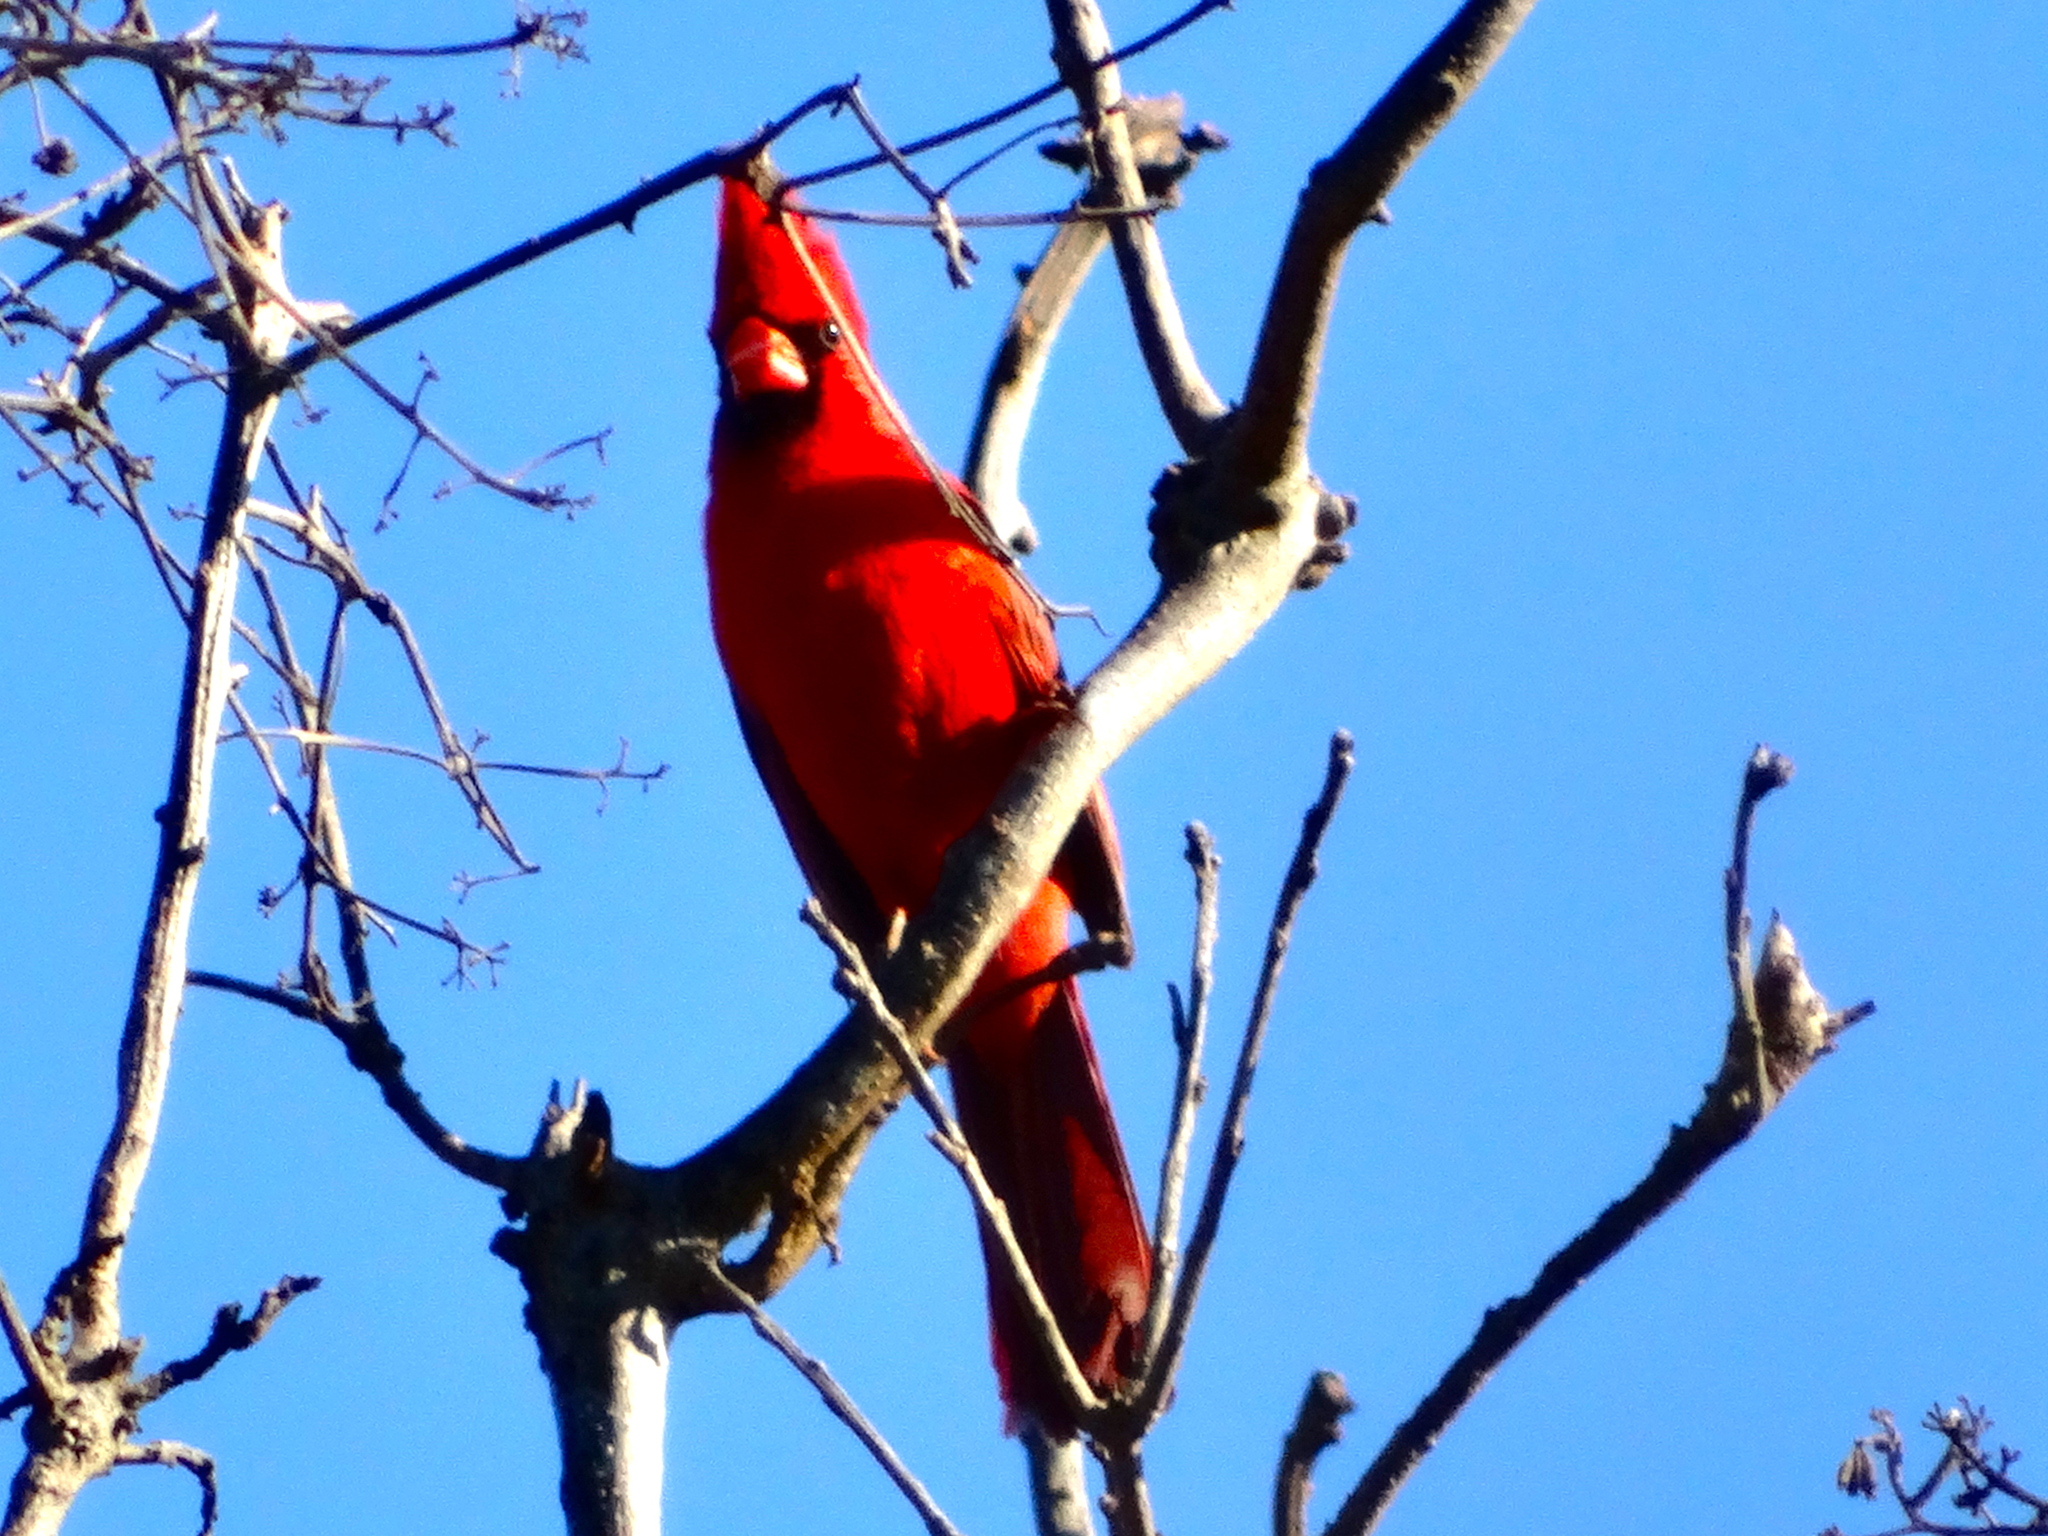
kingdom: Animalia
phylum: Chordata
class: Aves
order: Passeriformes
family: Cardinalidae
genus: Cardinalis
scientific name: Cardinalis cardinalis
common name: Northern cardinal
